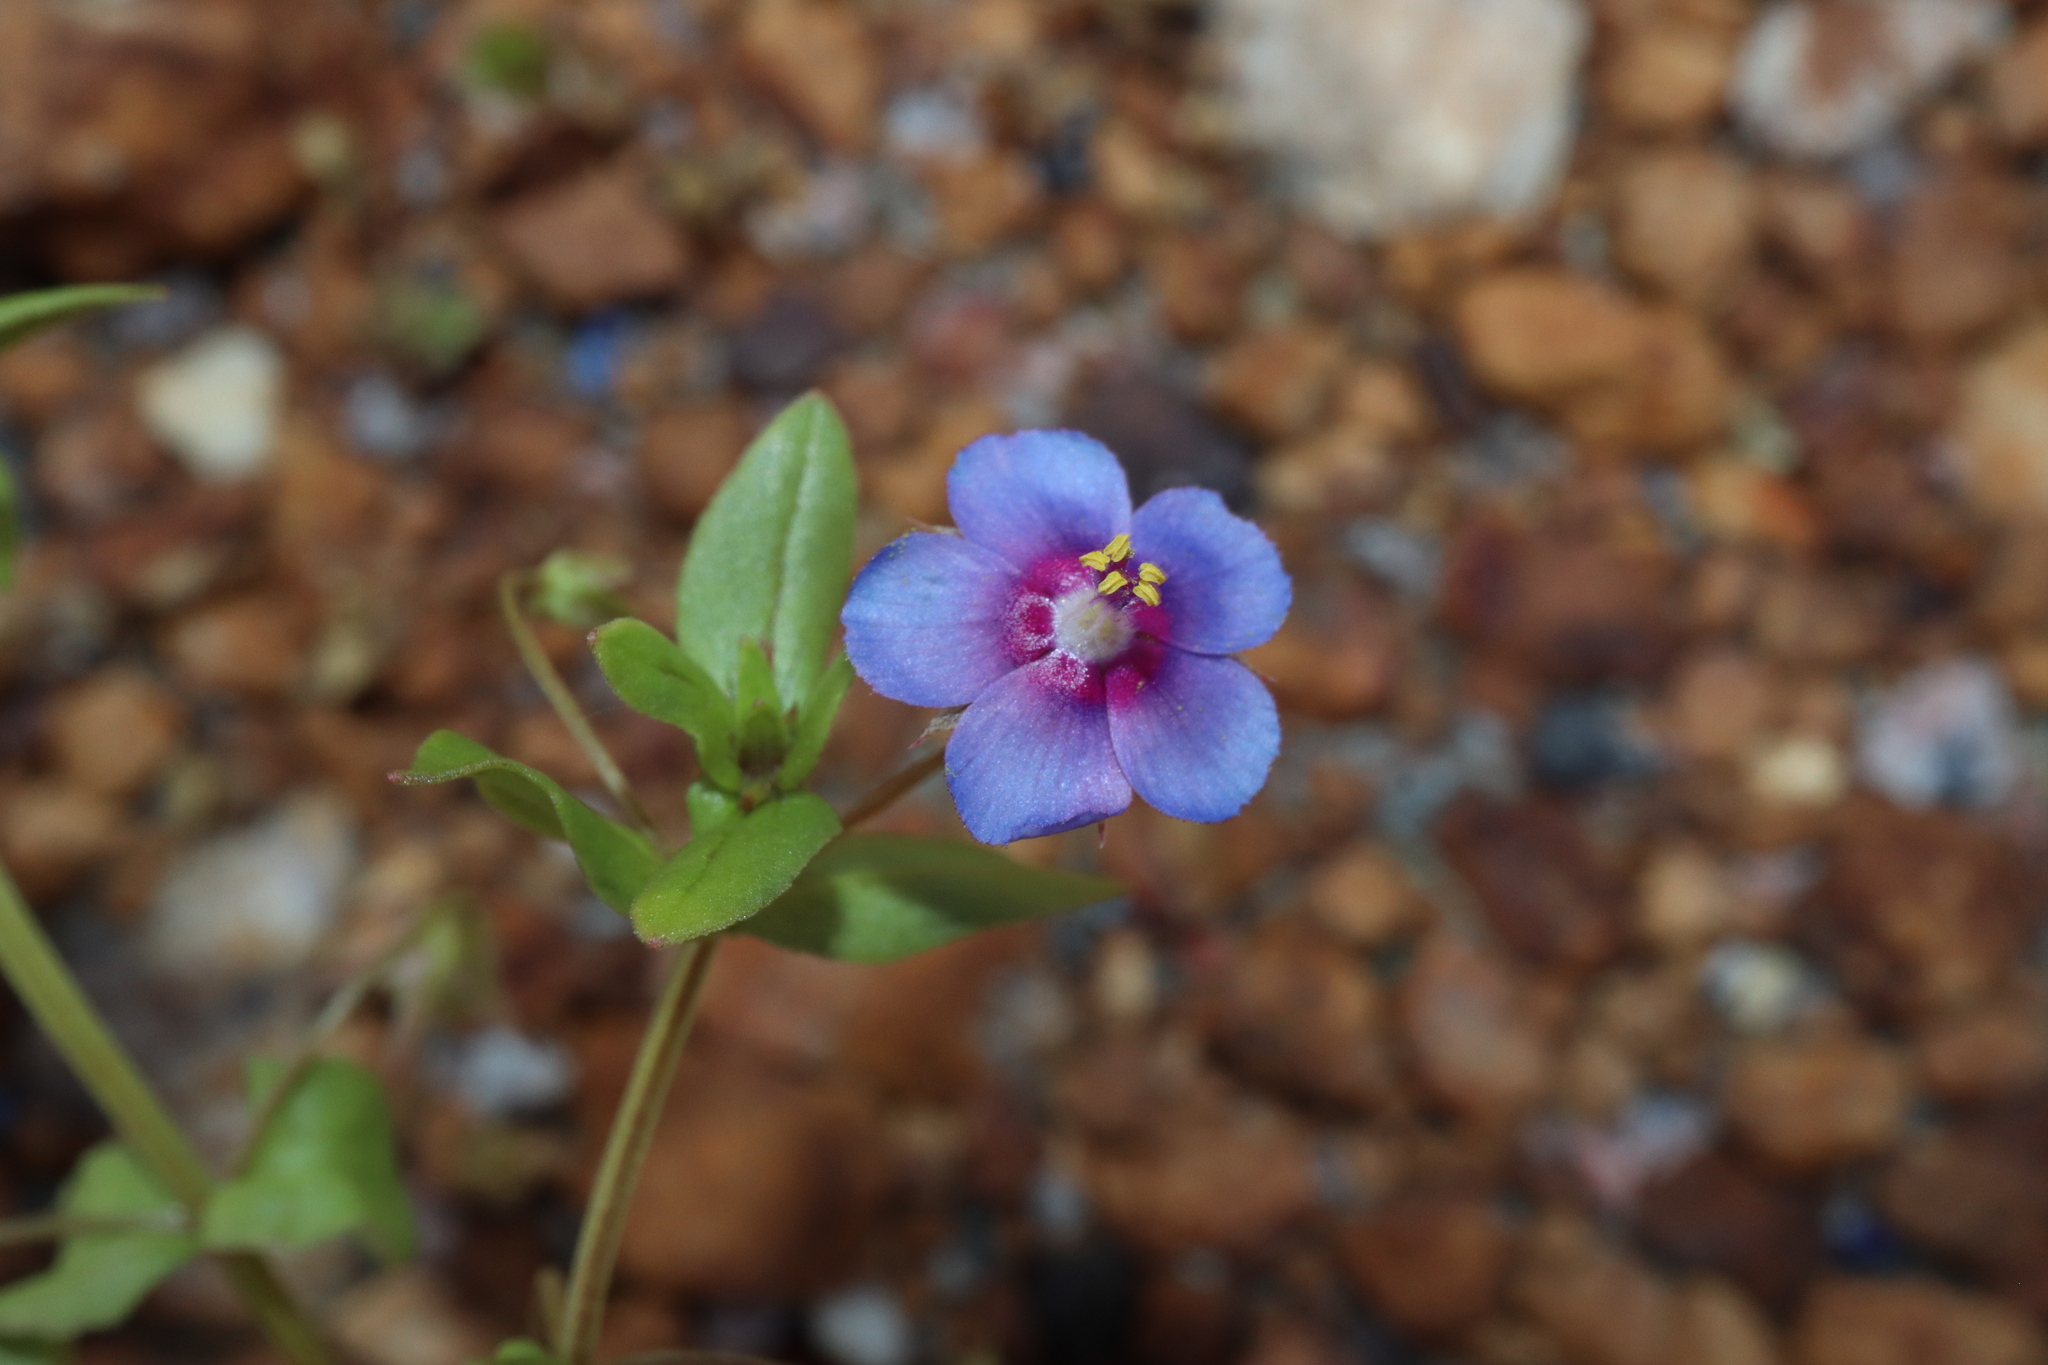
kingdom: Plantae
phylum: Tracheophyta
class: Magnoliopsida
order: Ericales
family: Primulaceae
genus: Lysimachia
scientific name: Lysimachia loeflingii
